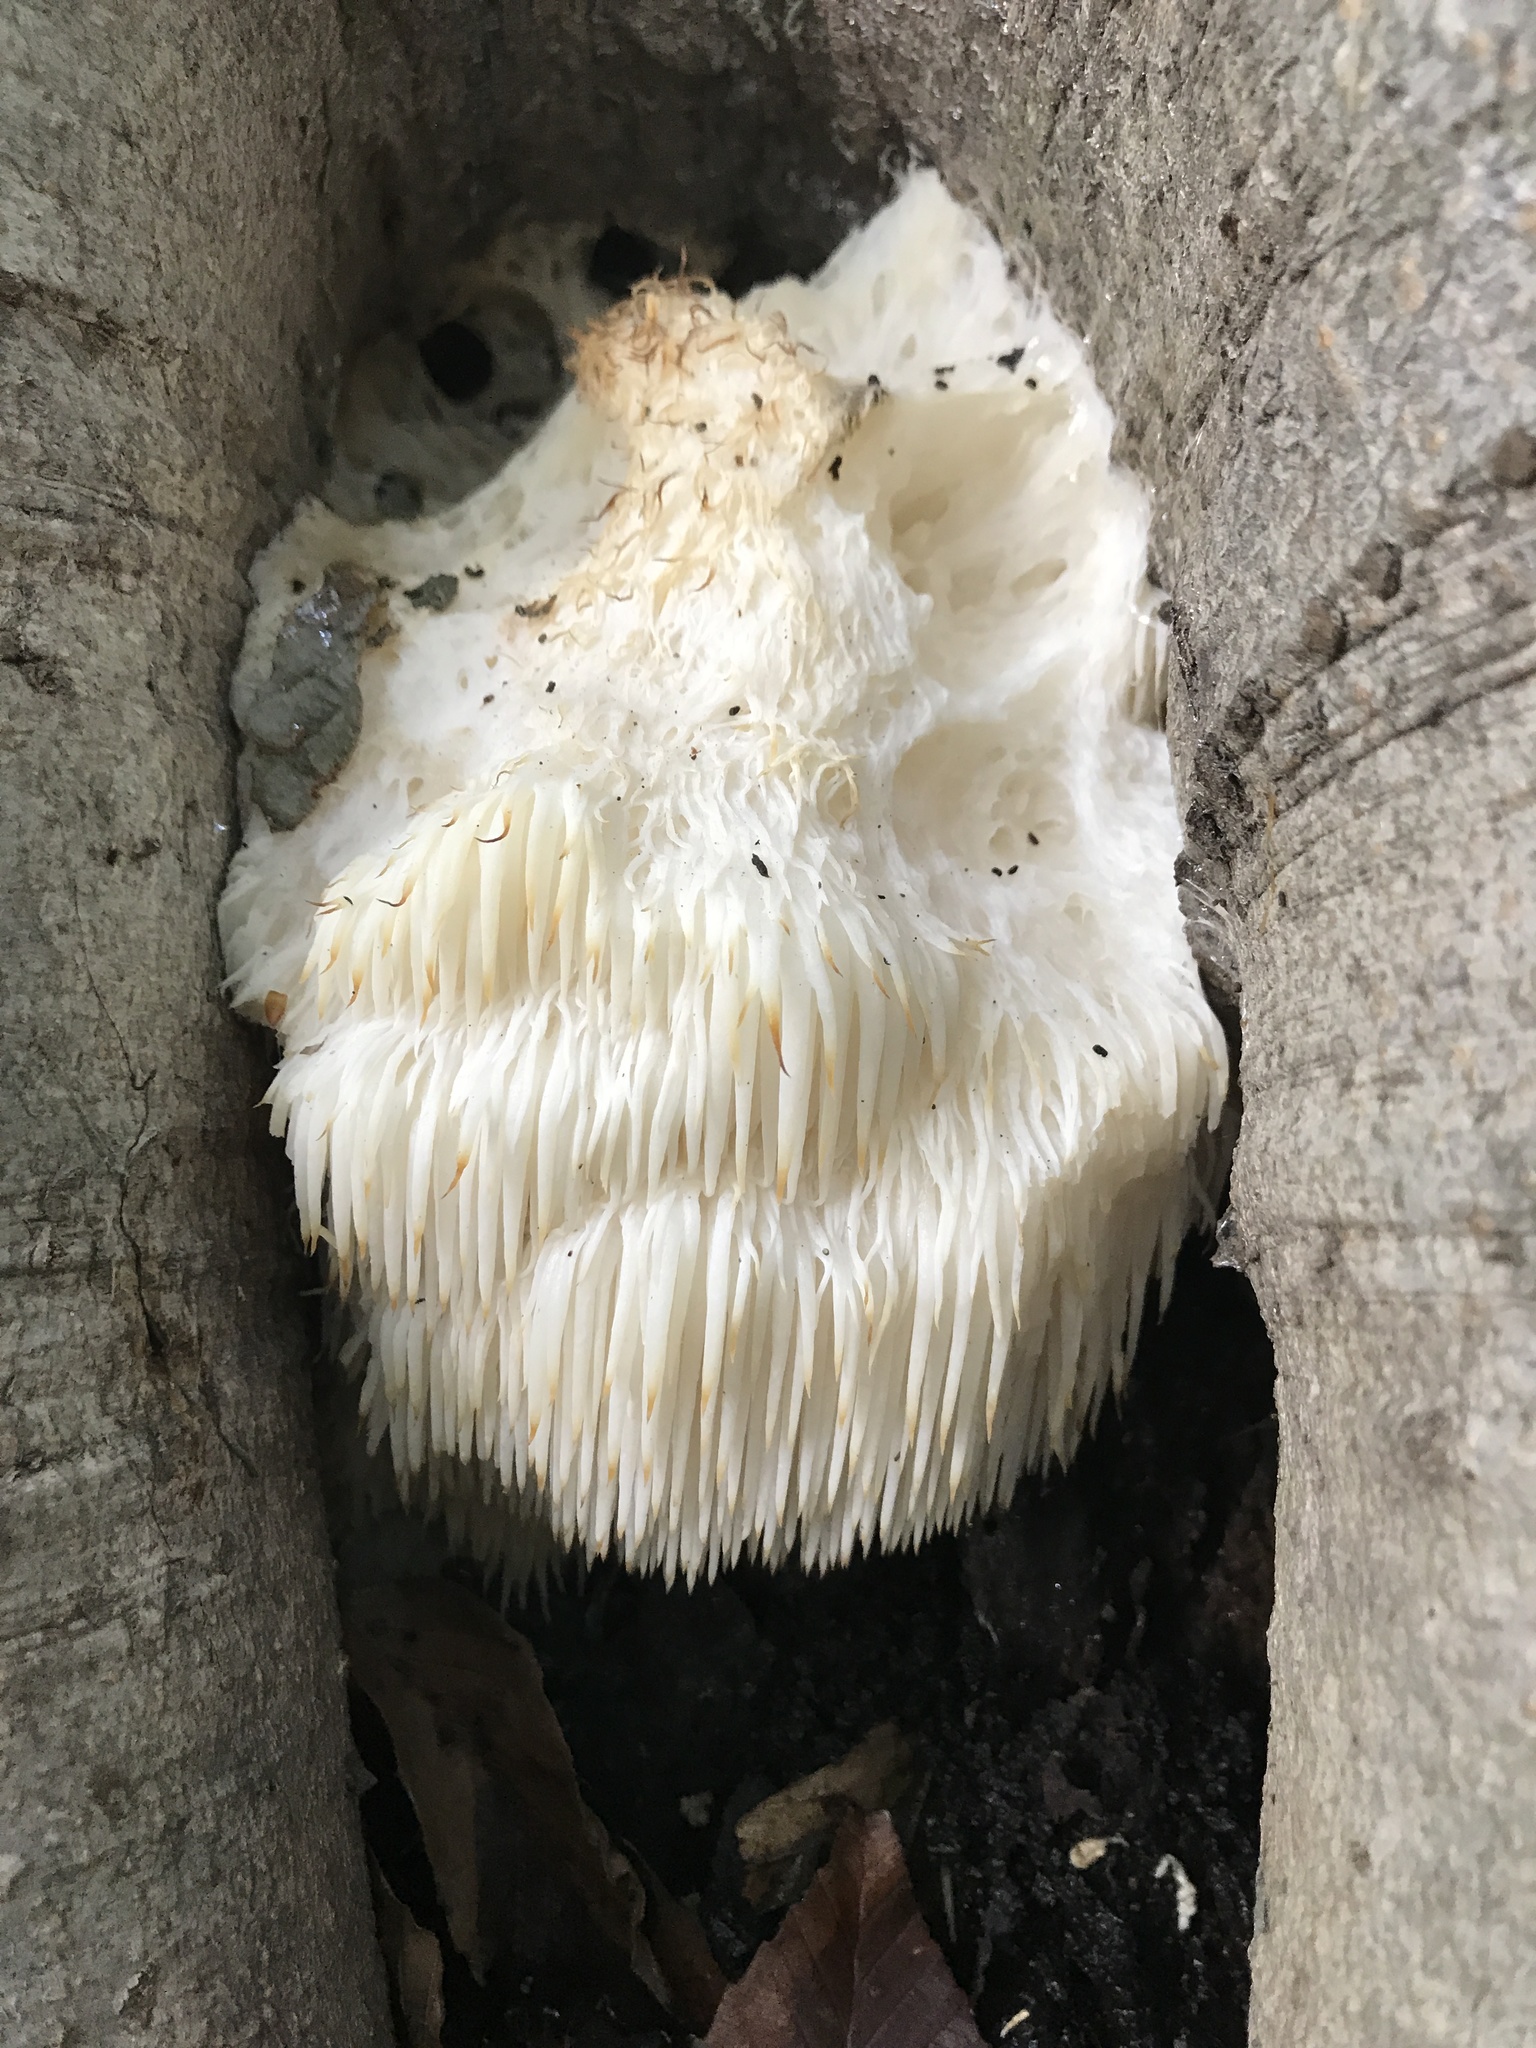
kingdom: Fungi
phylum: Basidiomycota
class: Agaricomycetes
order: Russulales
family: Hericiaceae
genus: Hericium
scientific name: Hericium erinaceus
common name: Bearded tooth
